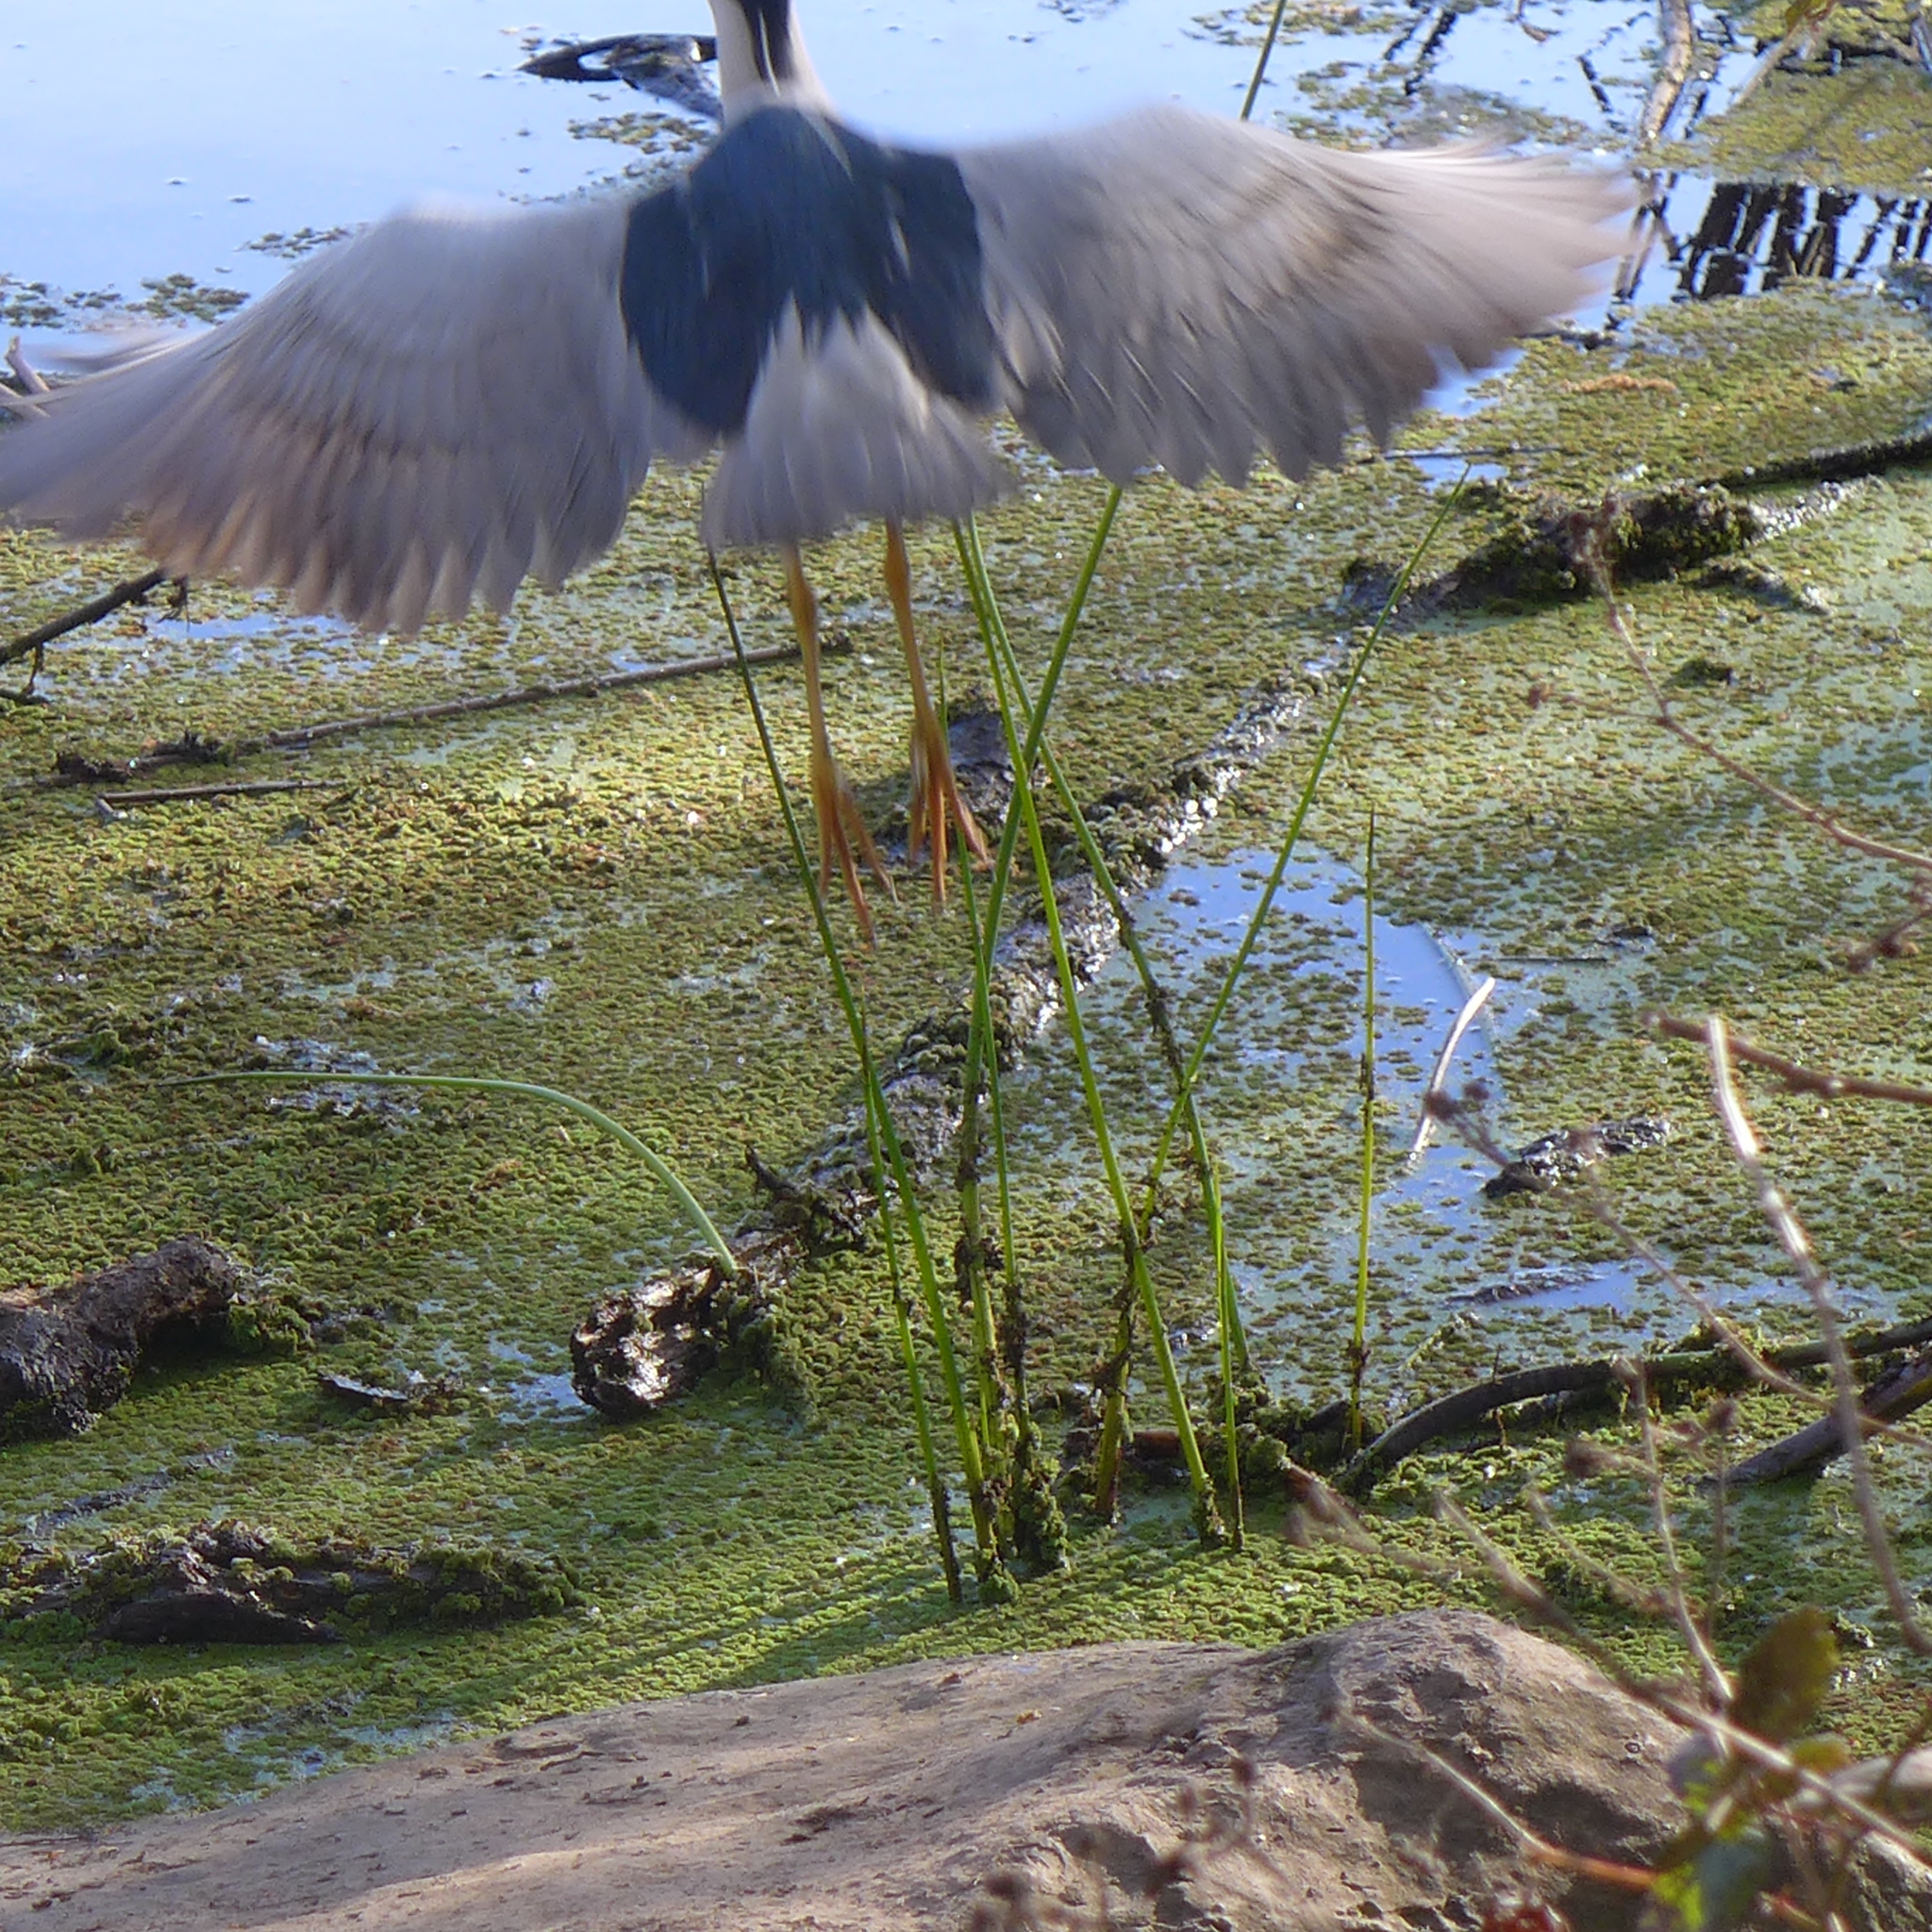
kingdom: Animalia
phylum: Chordata
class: Aves
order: Pelecaniformes
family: Ardeidae
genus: Nycticorax
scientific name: Nycticorax nycticorax
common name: Black-crowned night heron
